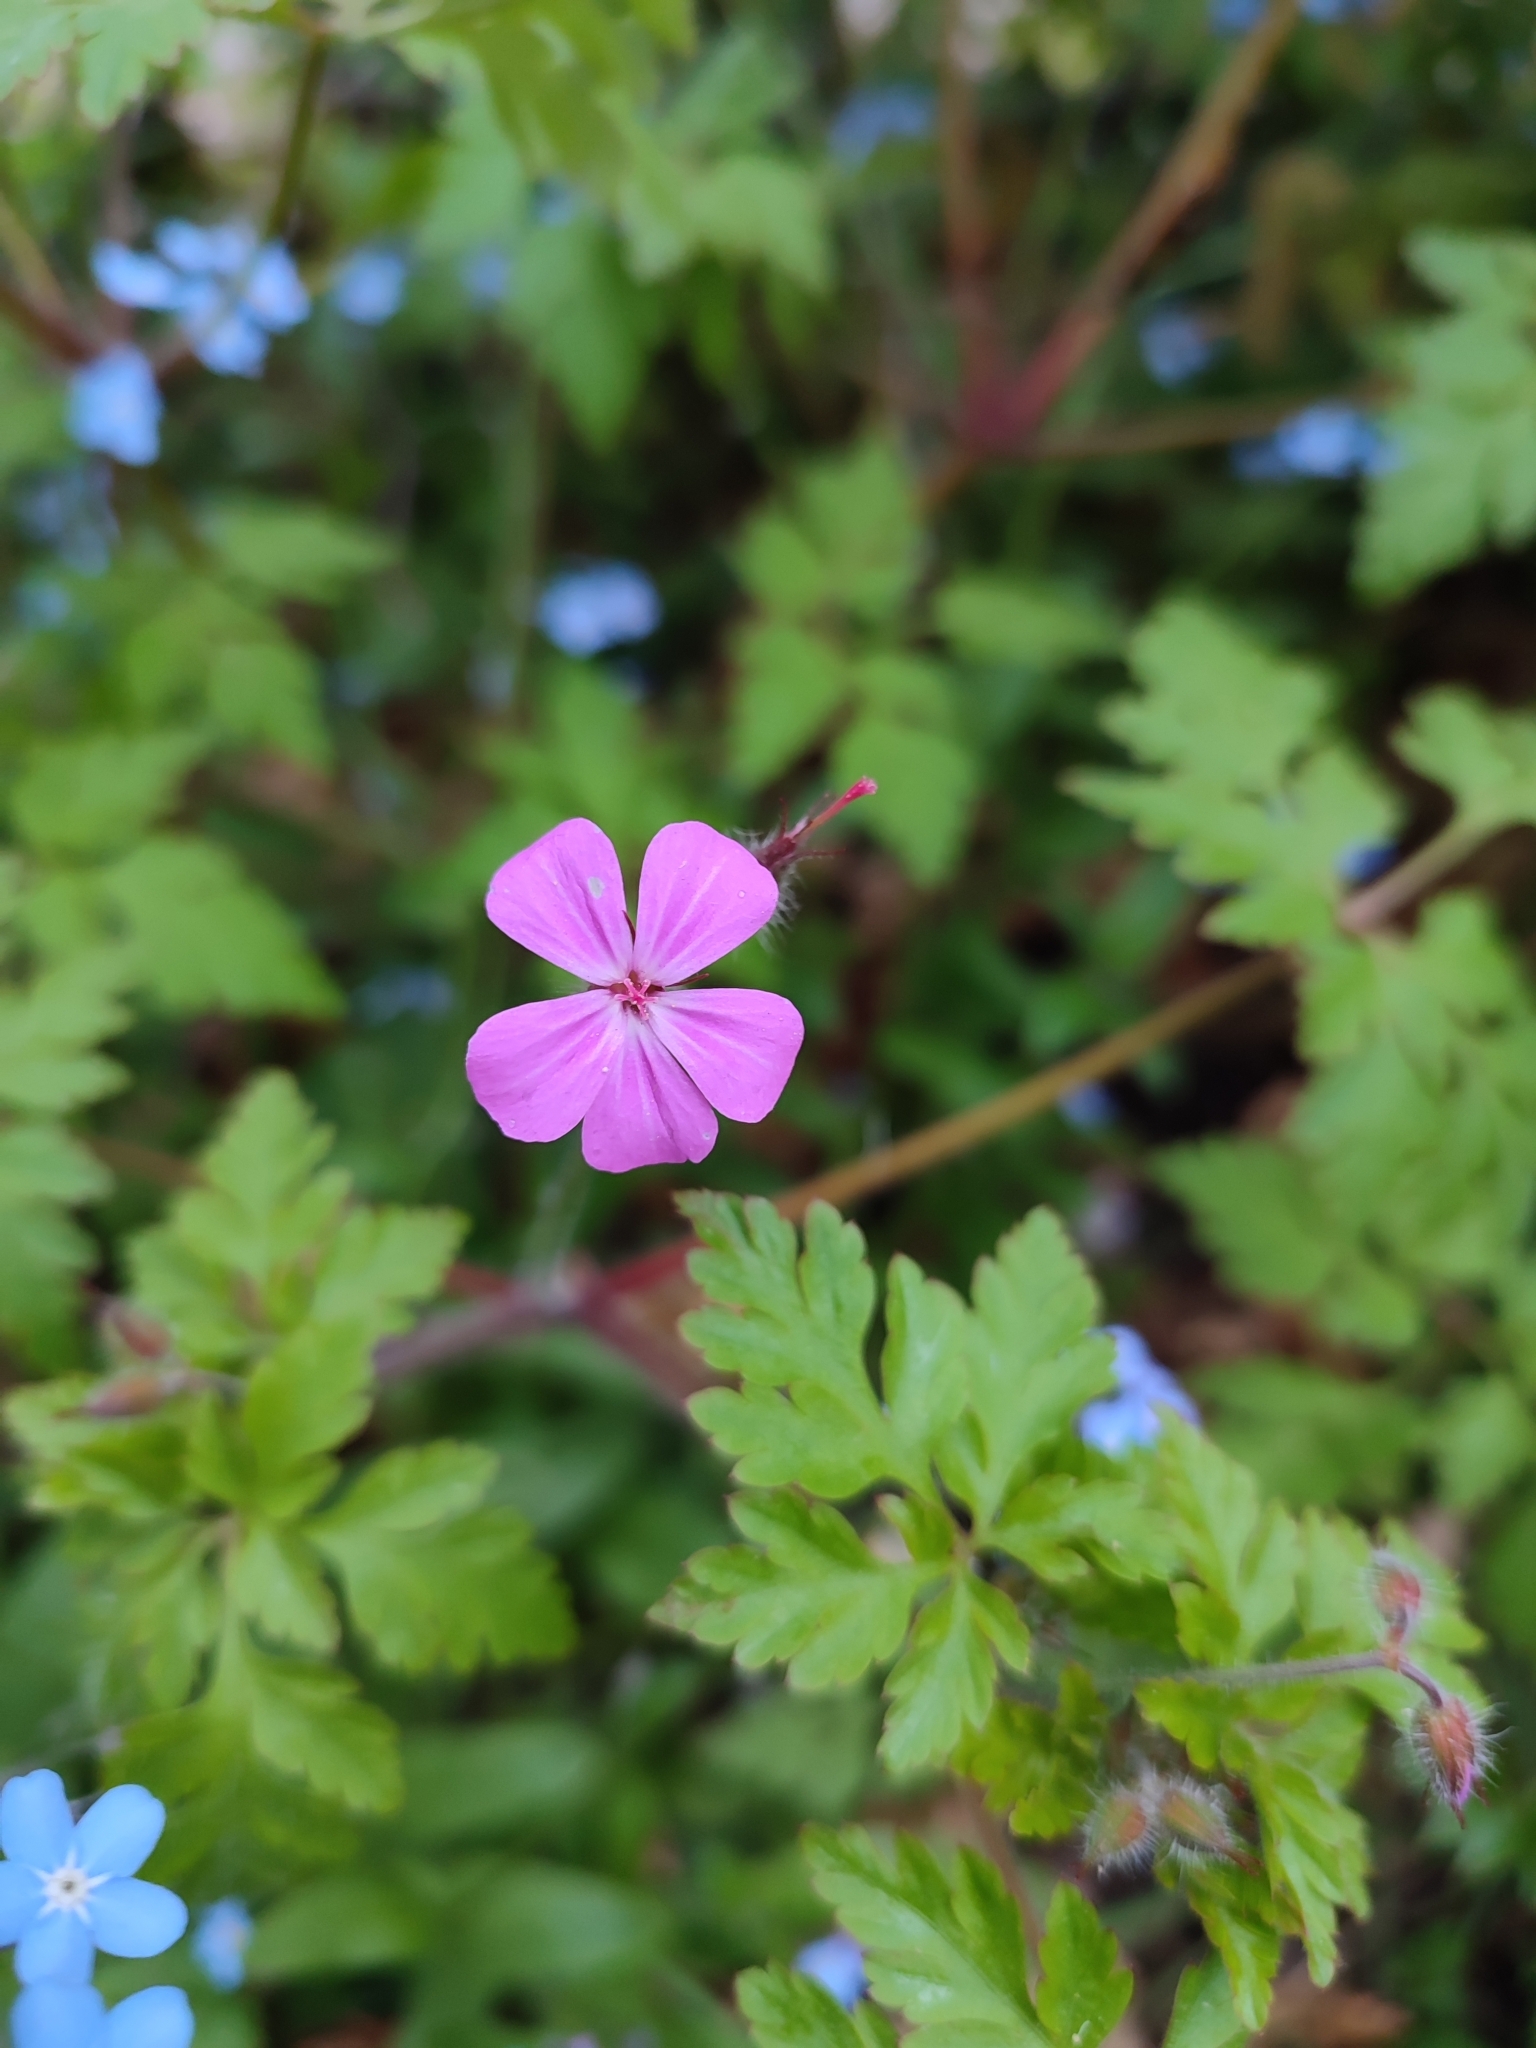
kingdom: Plantae
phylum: Tracheophyta
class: Magnoliopsida
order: Geraniales
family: Geraniaceae
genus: Geranium
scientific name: Geranium robertianum
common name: Herb-robert
